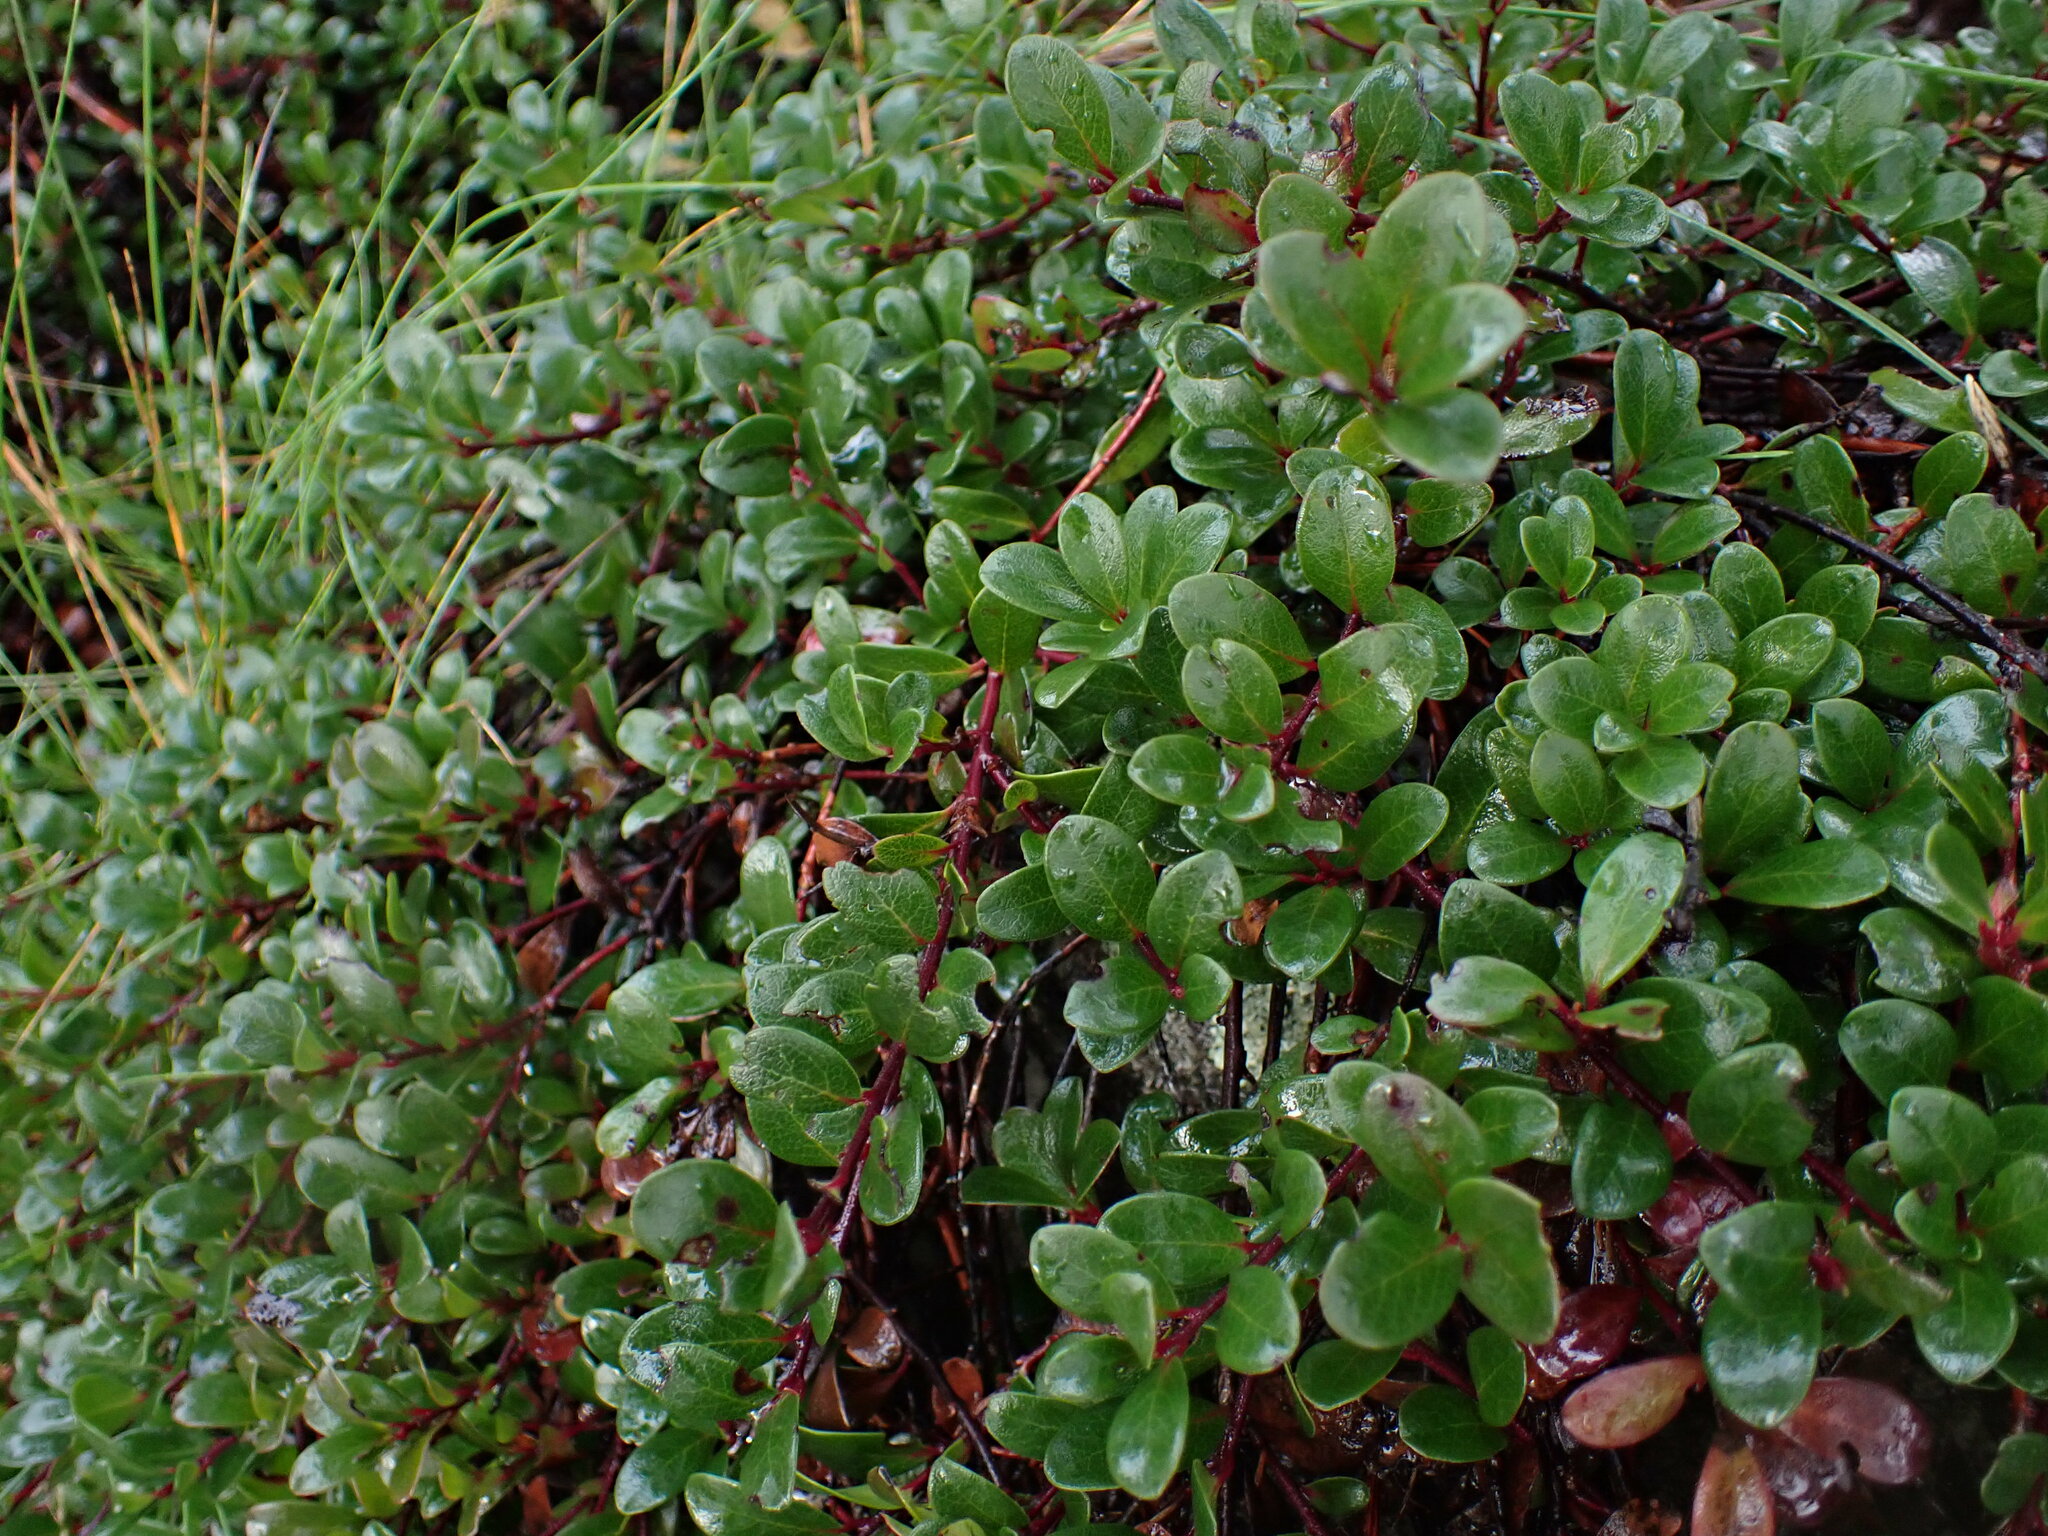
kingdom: Plantae
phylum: Tracheophyta
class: Magnoliopsida
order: Ericales
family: Ericaceae
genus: Arctostaphylos
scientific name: Arctostaphylos uva-ursi
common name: Bearberry
